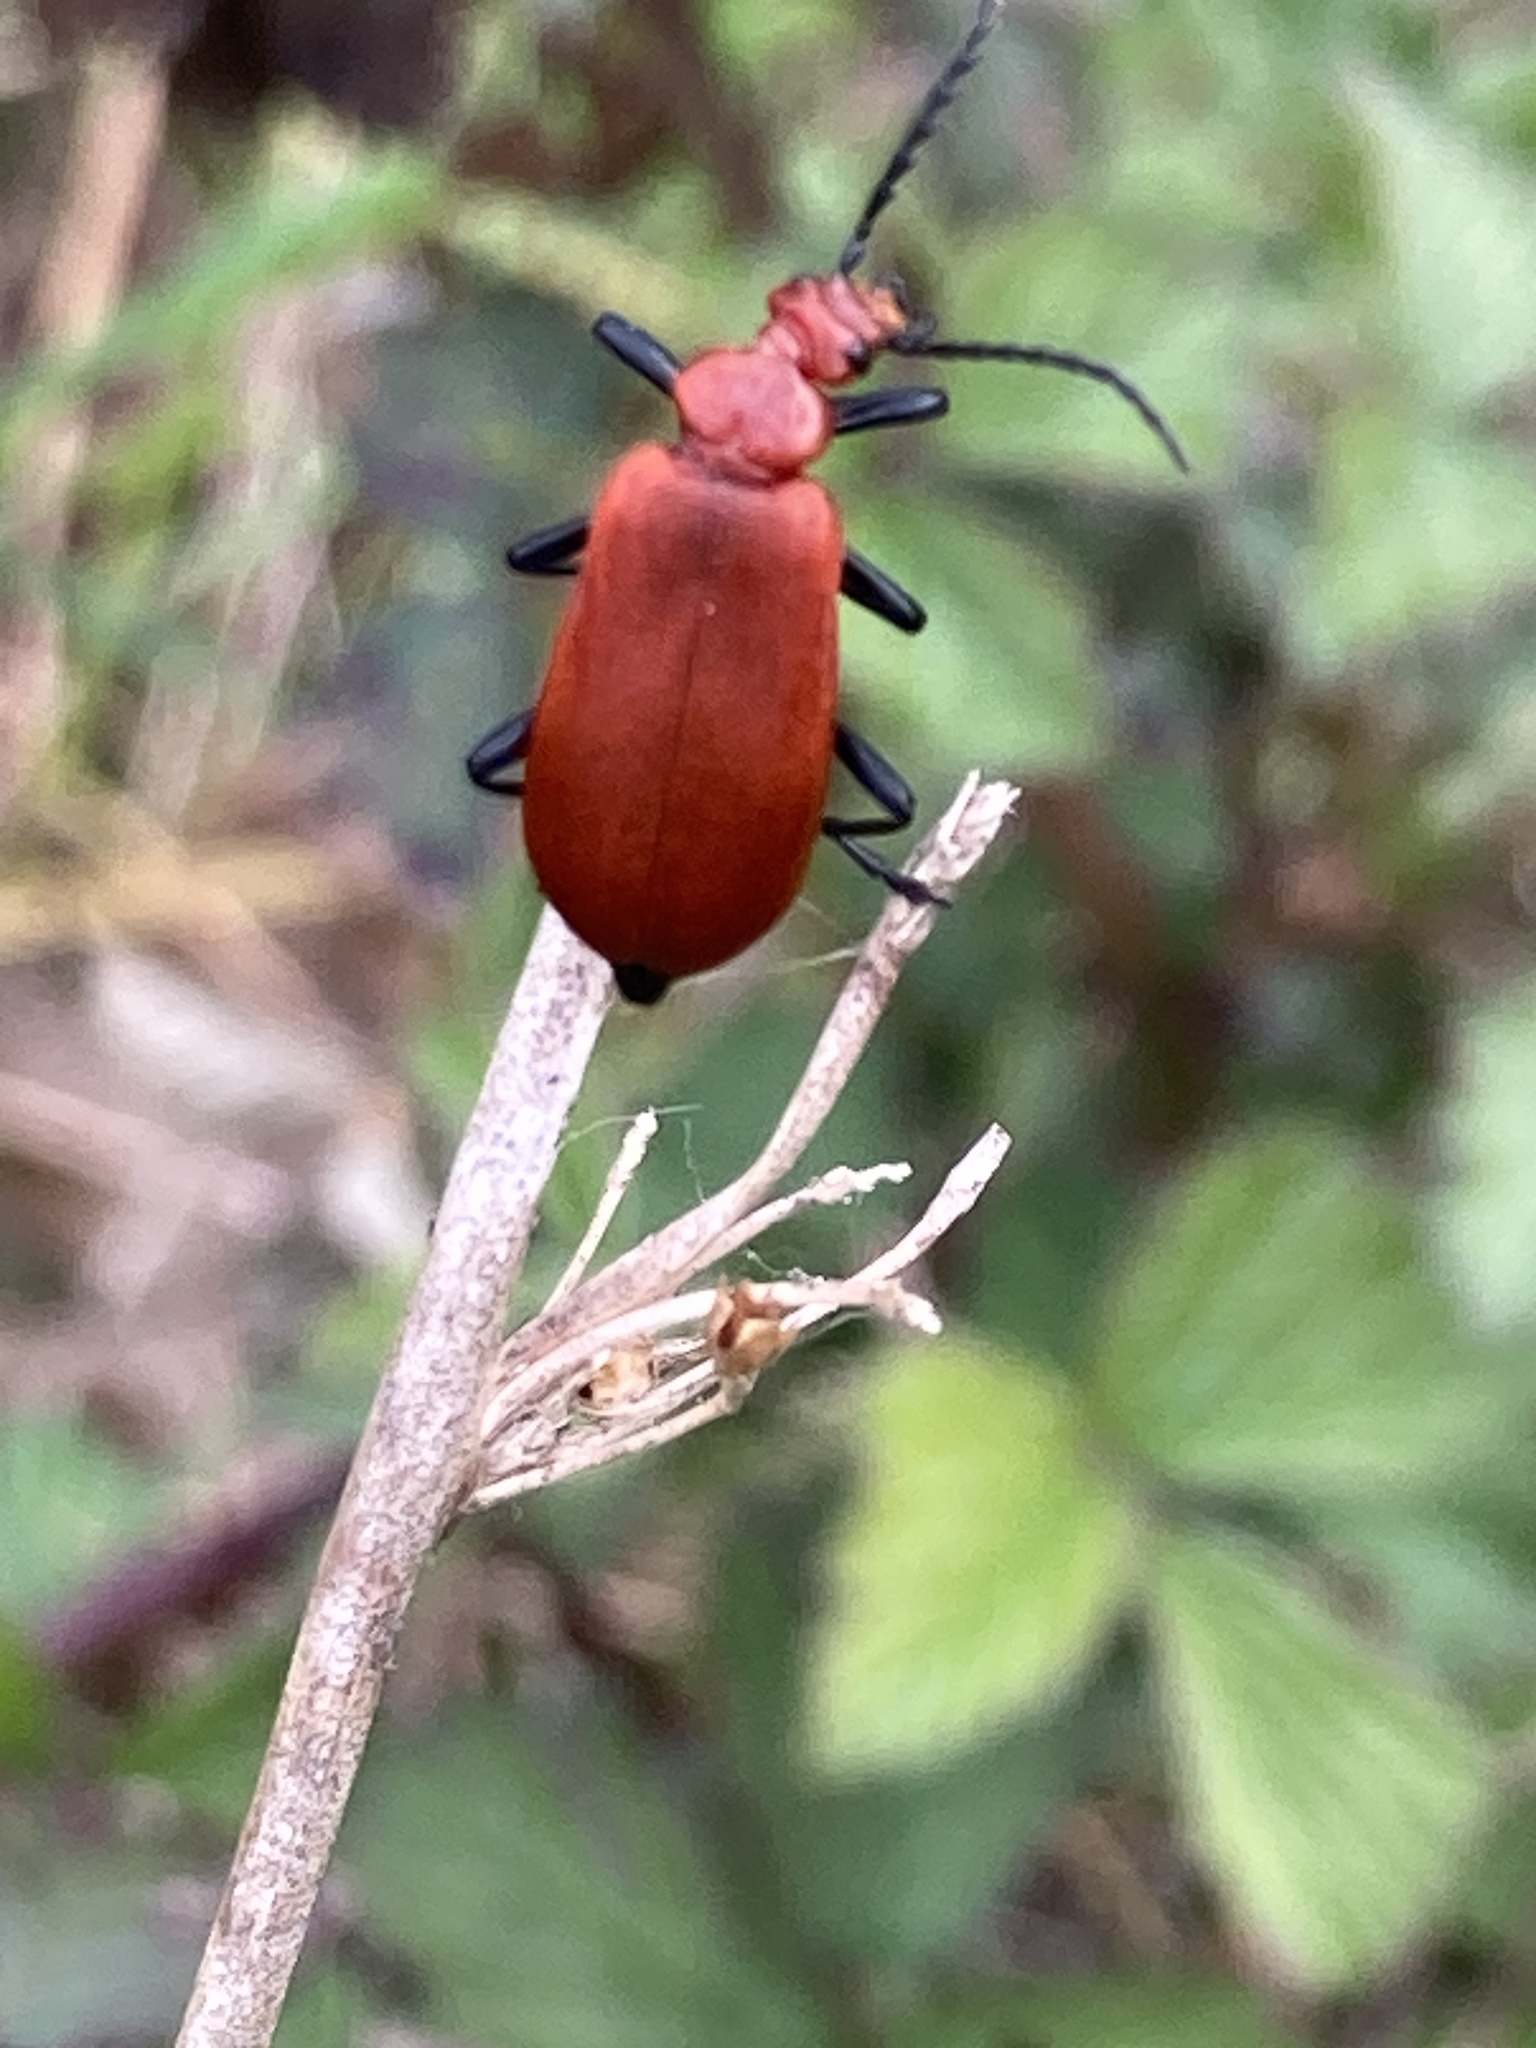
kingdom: Animalia
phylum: Arthropoda
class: Insecta
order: Coleoptera
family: Pyrochroidae
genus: Pyrochroa
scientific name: Pyrochroa serraticornis
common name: Red-headed cardinal beetle
